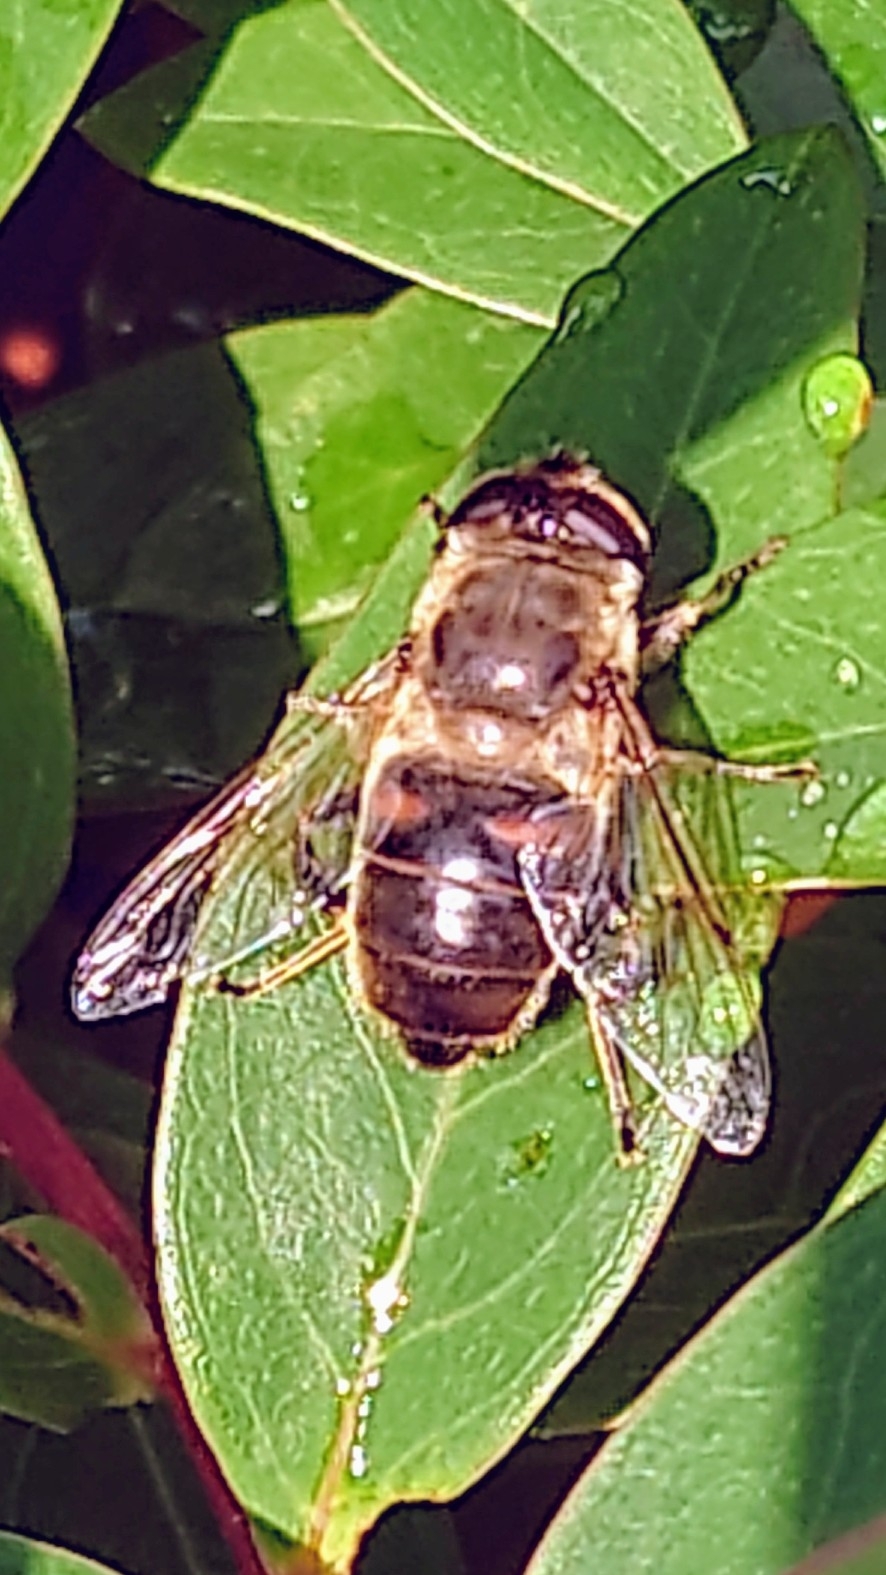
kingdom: Animalia
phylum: Arthropoda
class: Insecta
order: Diptera
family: Syrphidae
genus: Eristalis
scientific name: Eristalis tenax
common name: Drone fly
